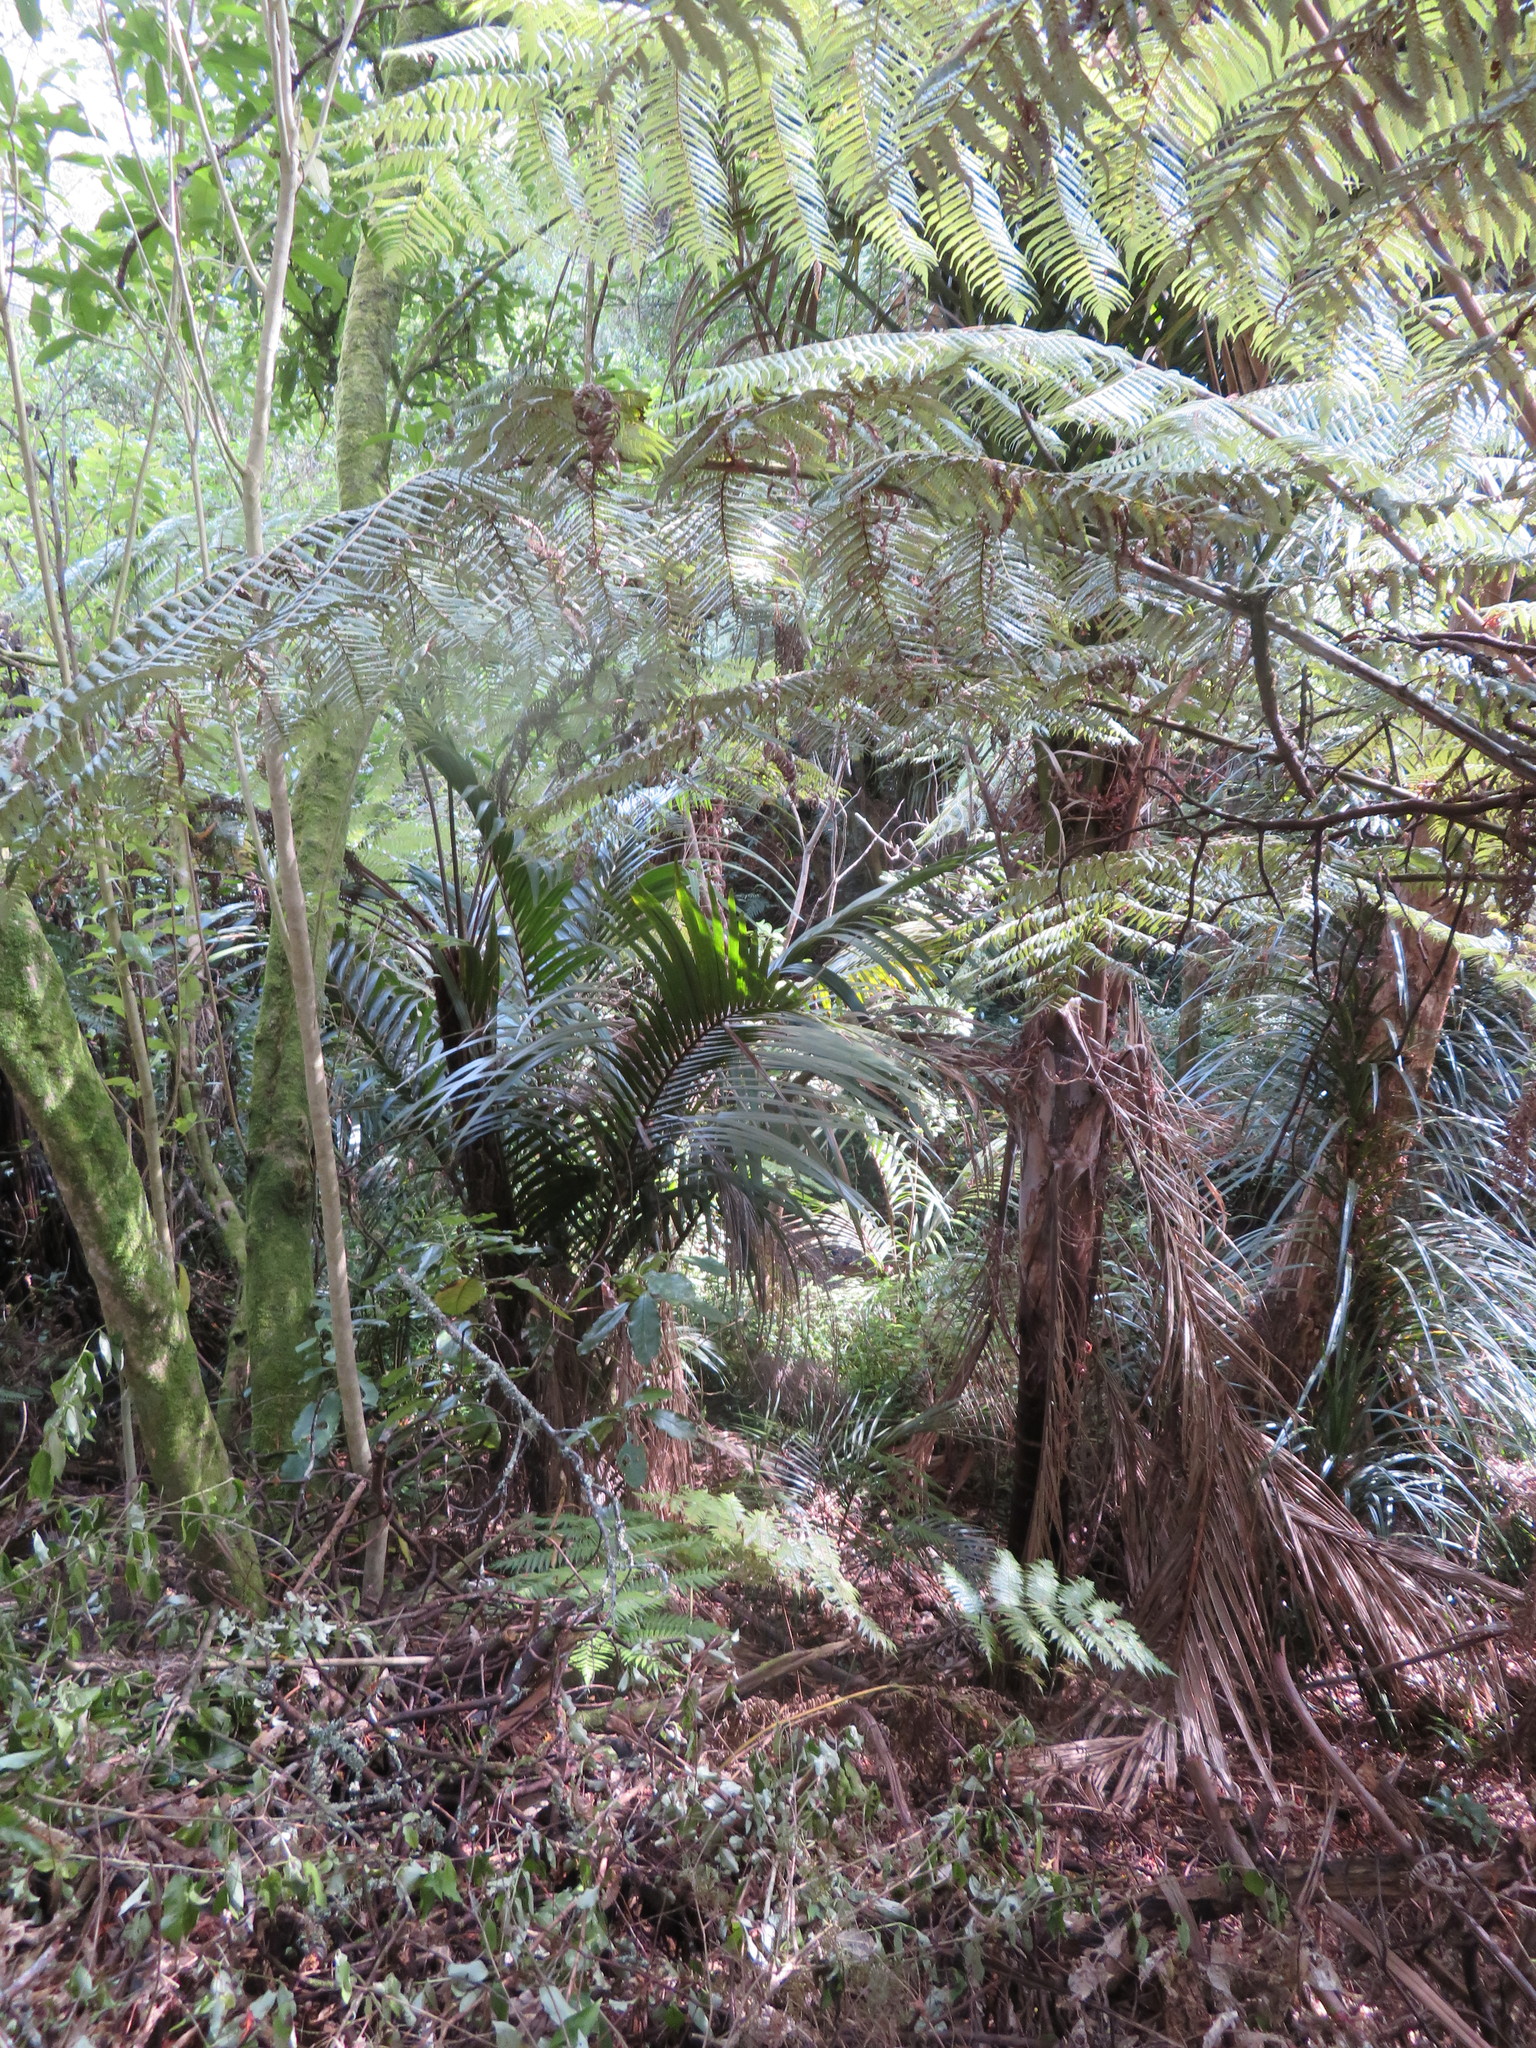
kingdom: Plantae
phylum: Tracheophyta
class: Magnoliopsida
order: Malpighiales
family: Violaceae
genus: Melicytus
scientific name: Melicytus ramiflorus
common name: Mahoe
